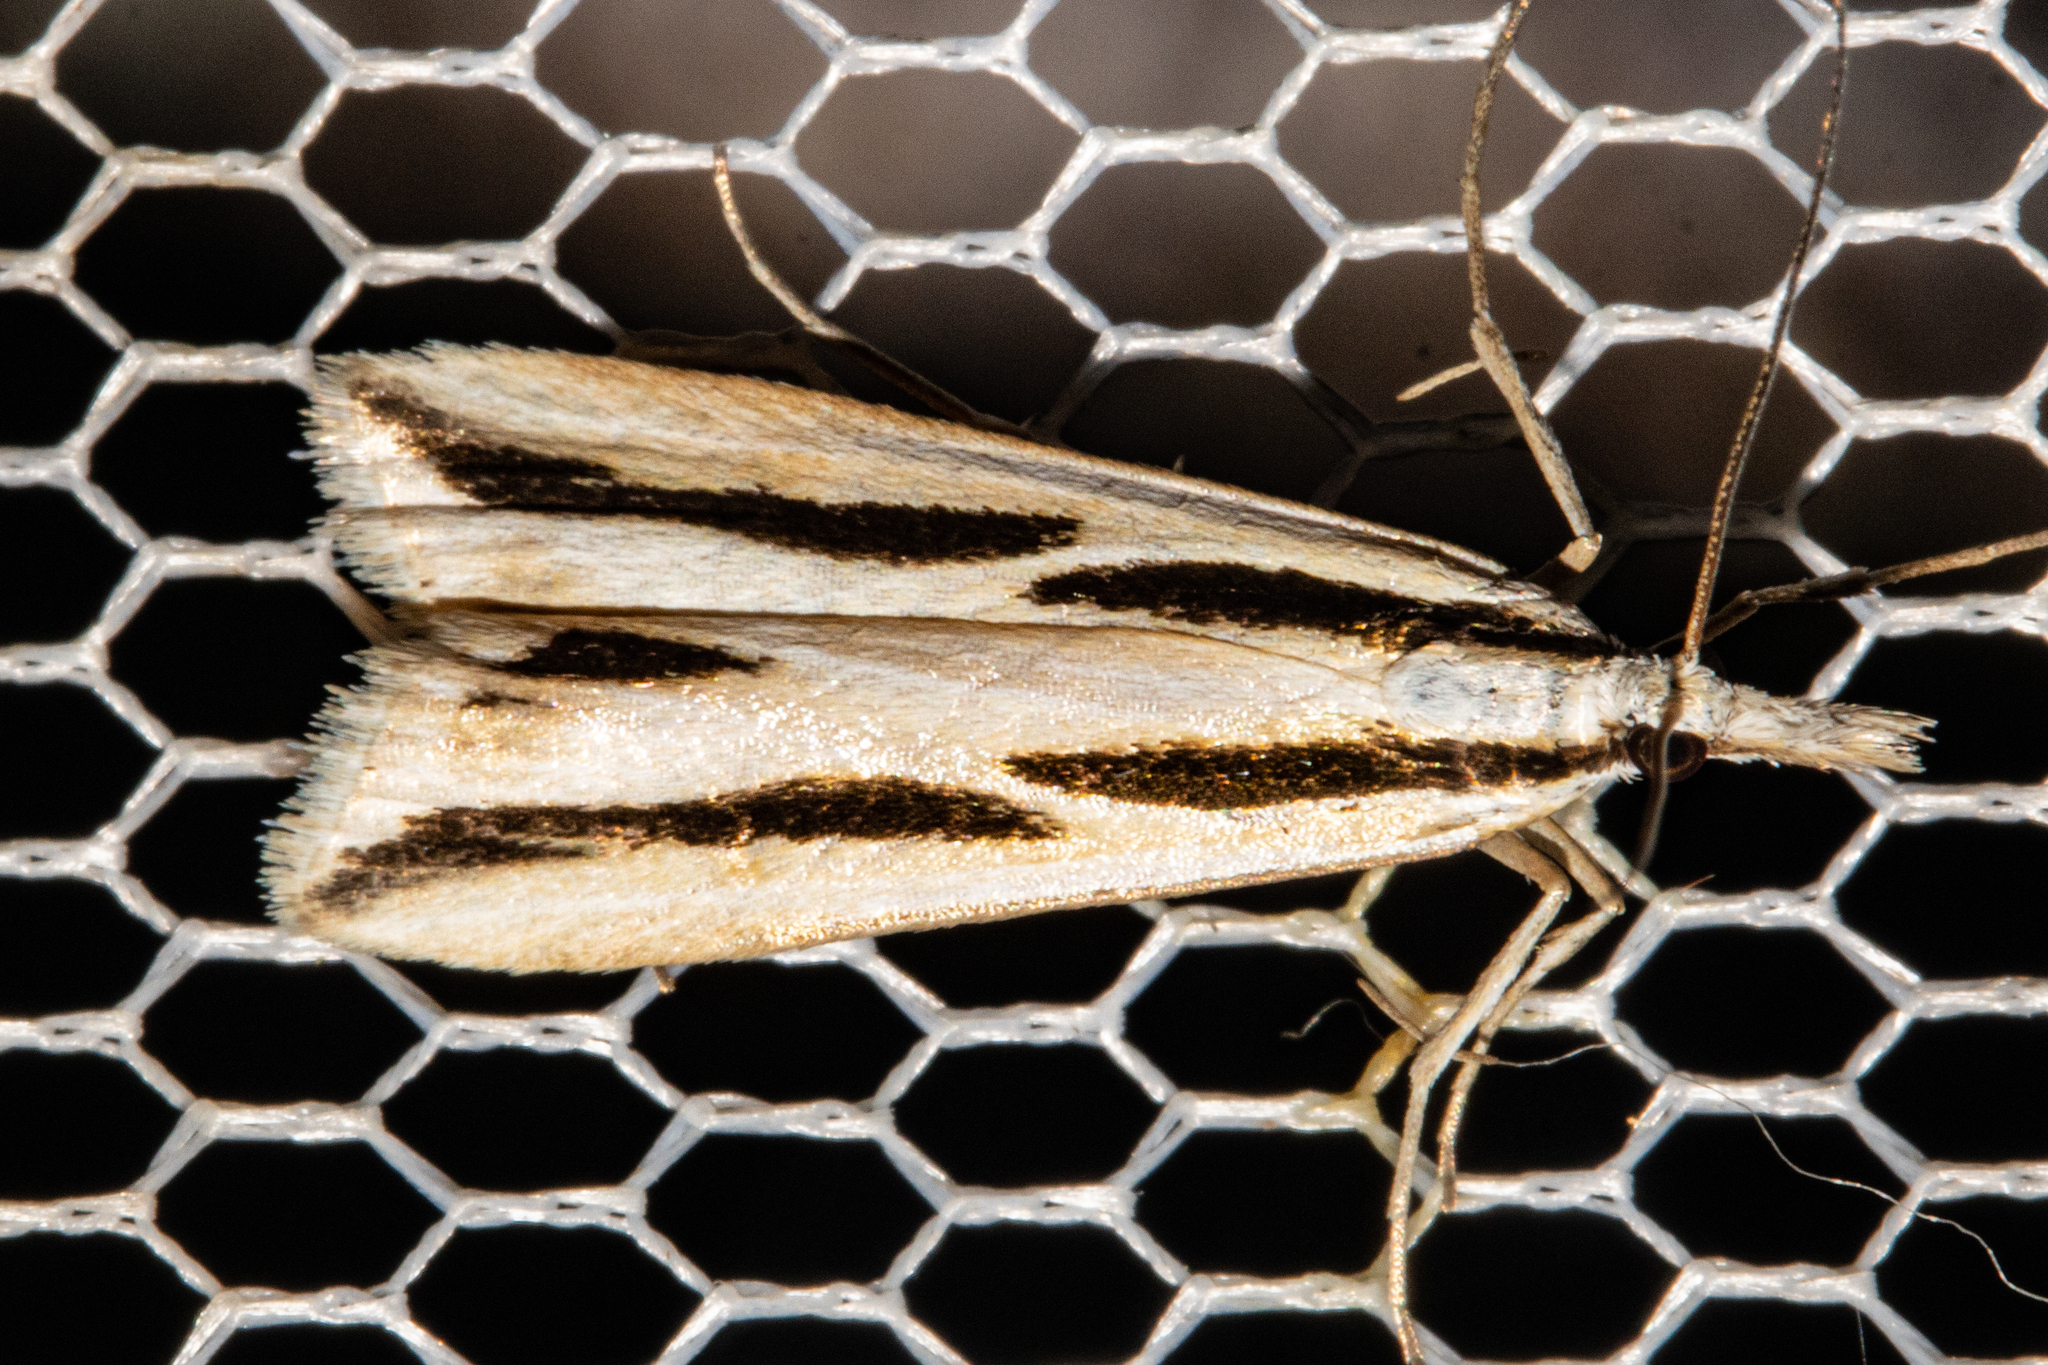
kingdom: Animalia
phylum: Arthropoda
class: Insecta
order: Lepidoptera
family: Crambidae
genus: Eudonia
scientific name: Eudonia trivirgata
